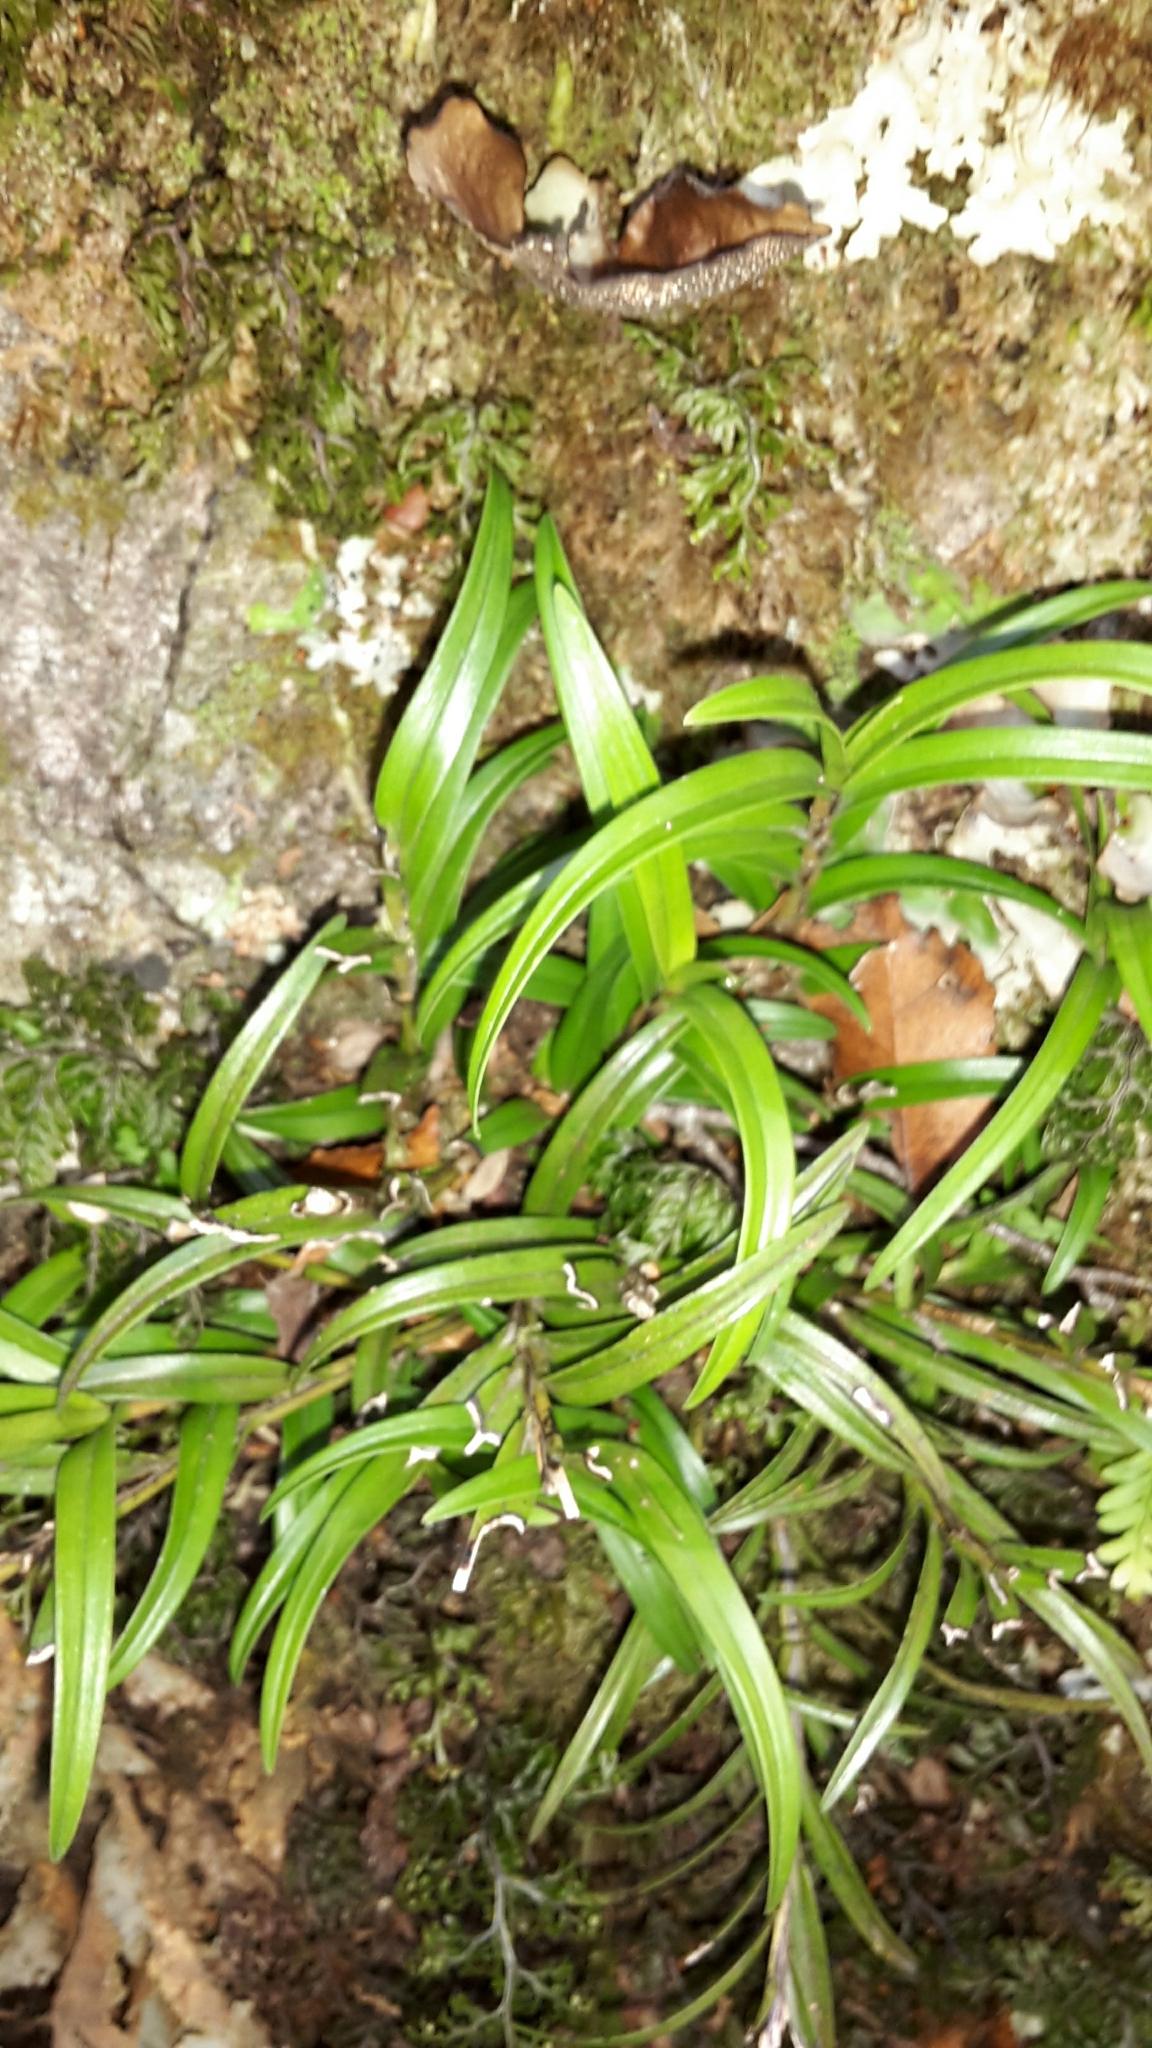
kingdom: Plantae
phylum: Tracheophyta
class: Liliopsida
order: Asparagales
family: Orchidaceae
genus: Dendrobium
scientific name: Dendrobium cunninghamii
